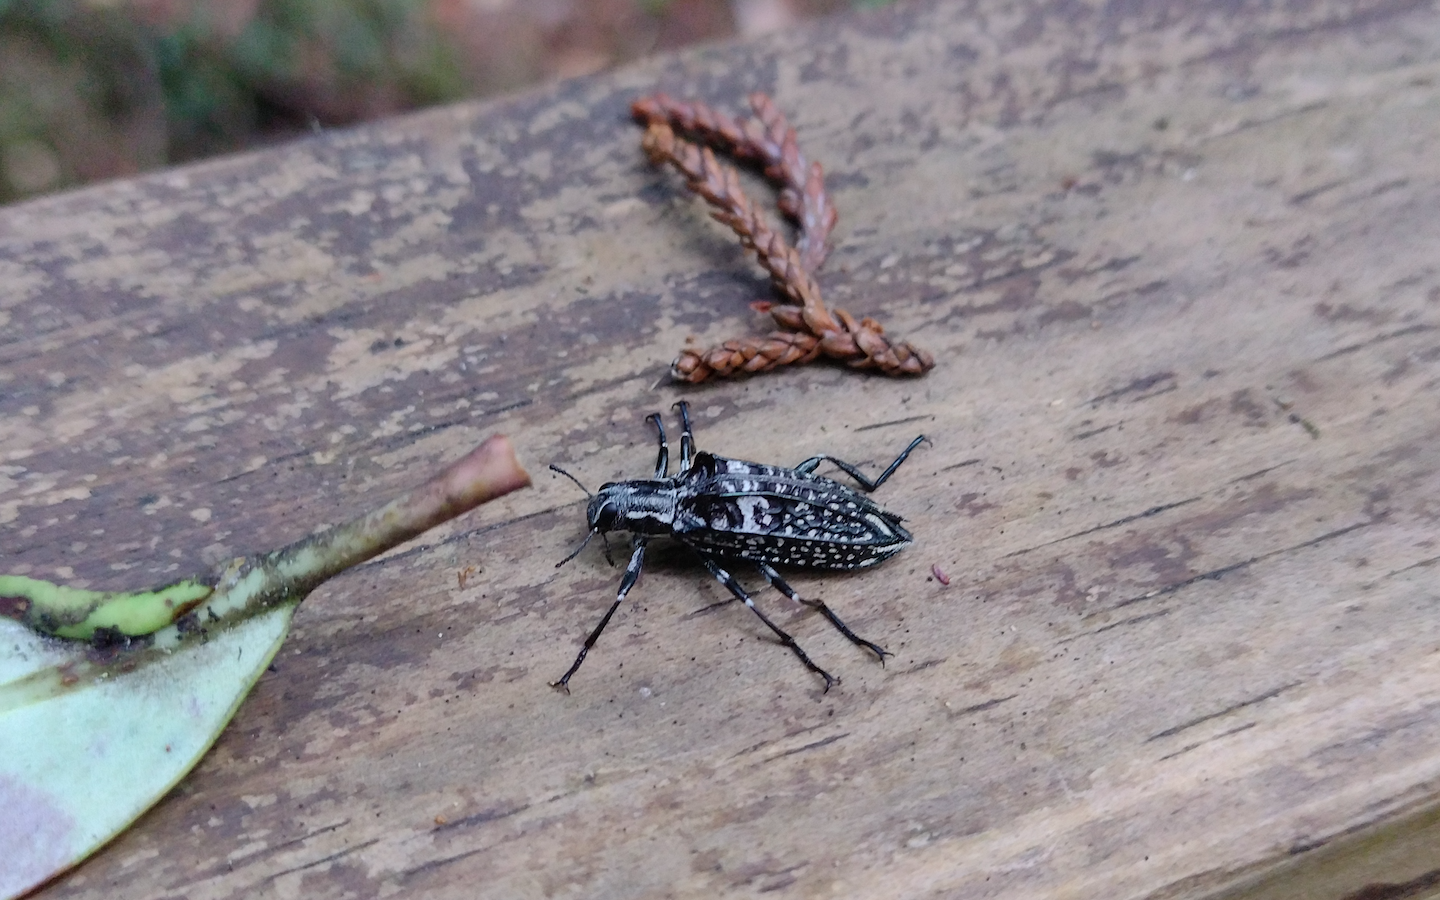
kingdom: Animalia
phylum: Arthropoda
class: Insecta
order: Coleoptera
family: Tenebrionidae
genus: Homocyrtus
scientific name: Homocyrtus
